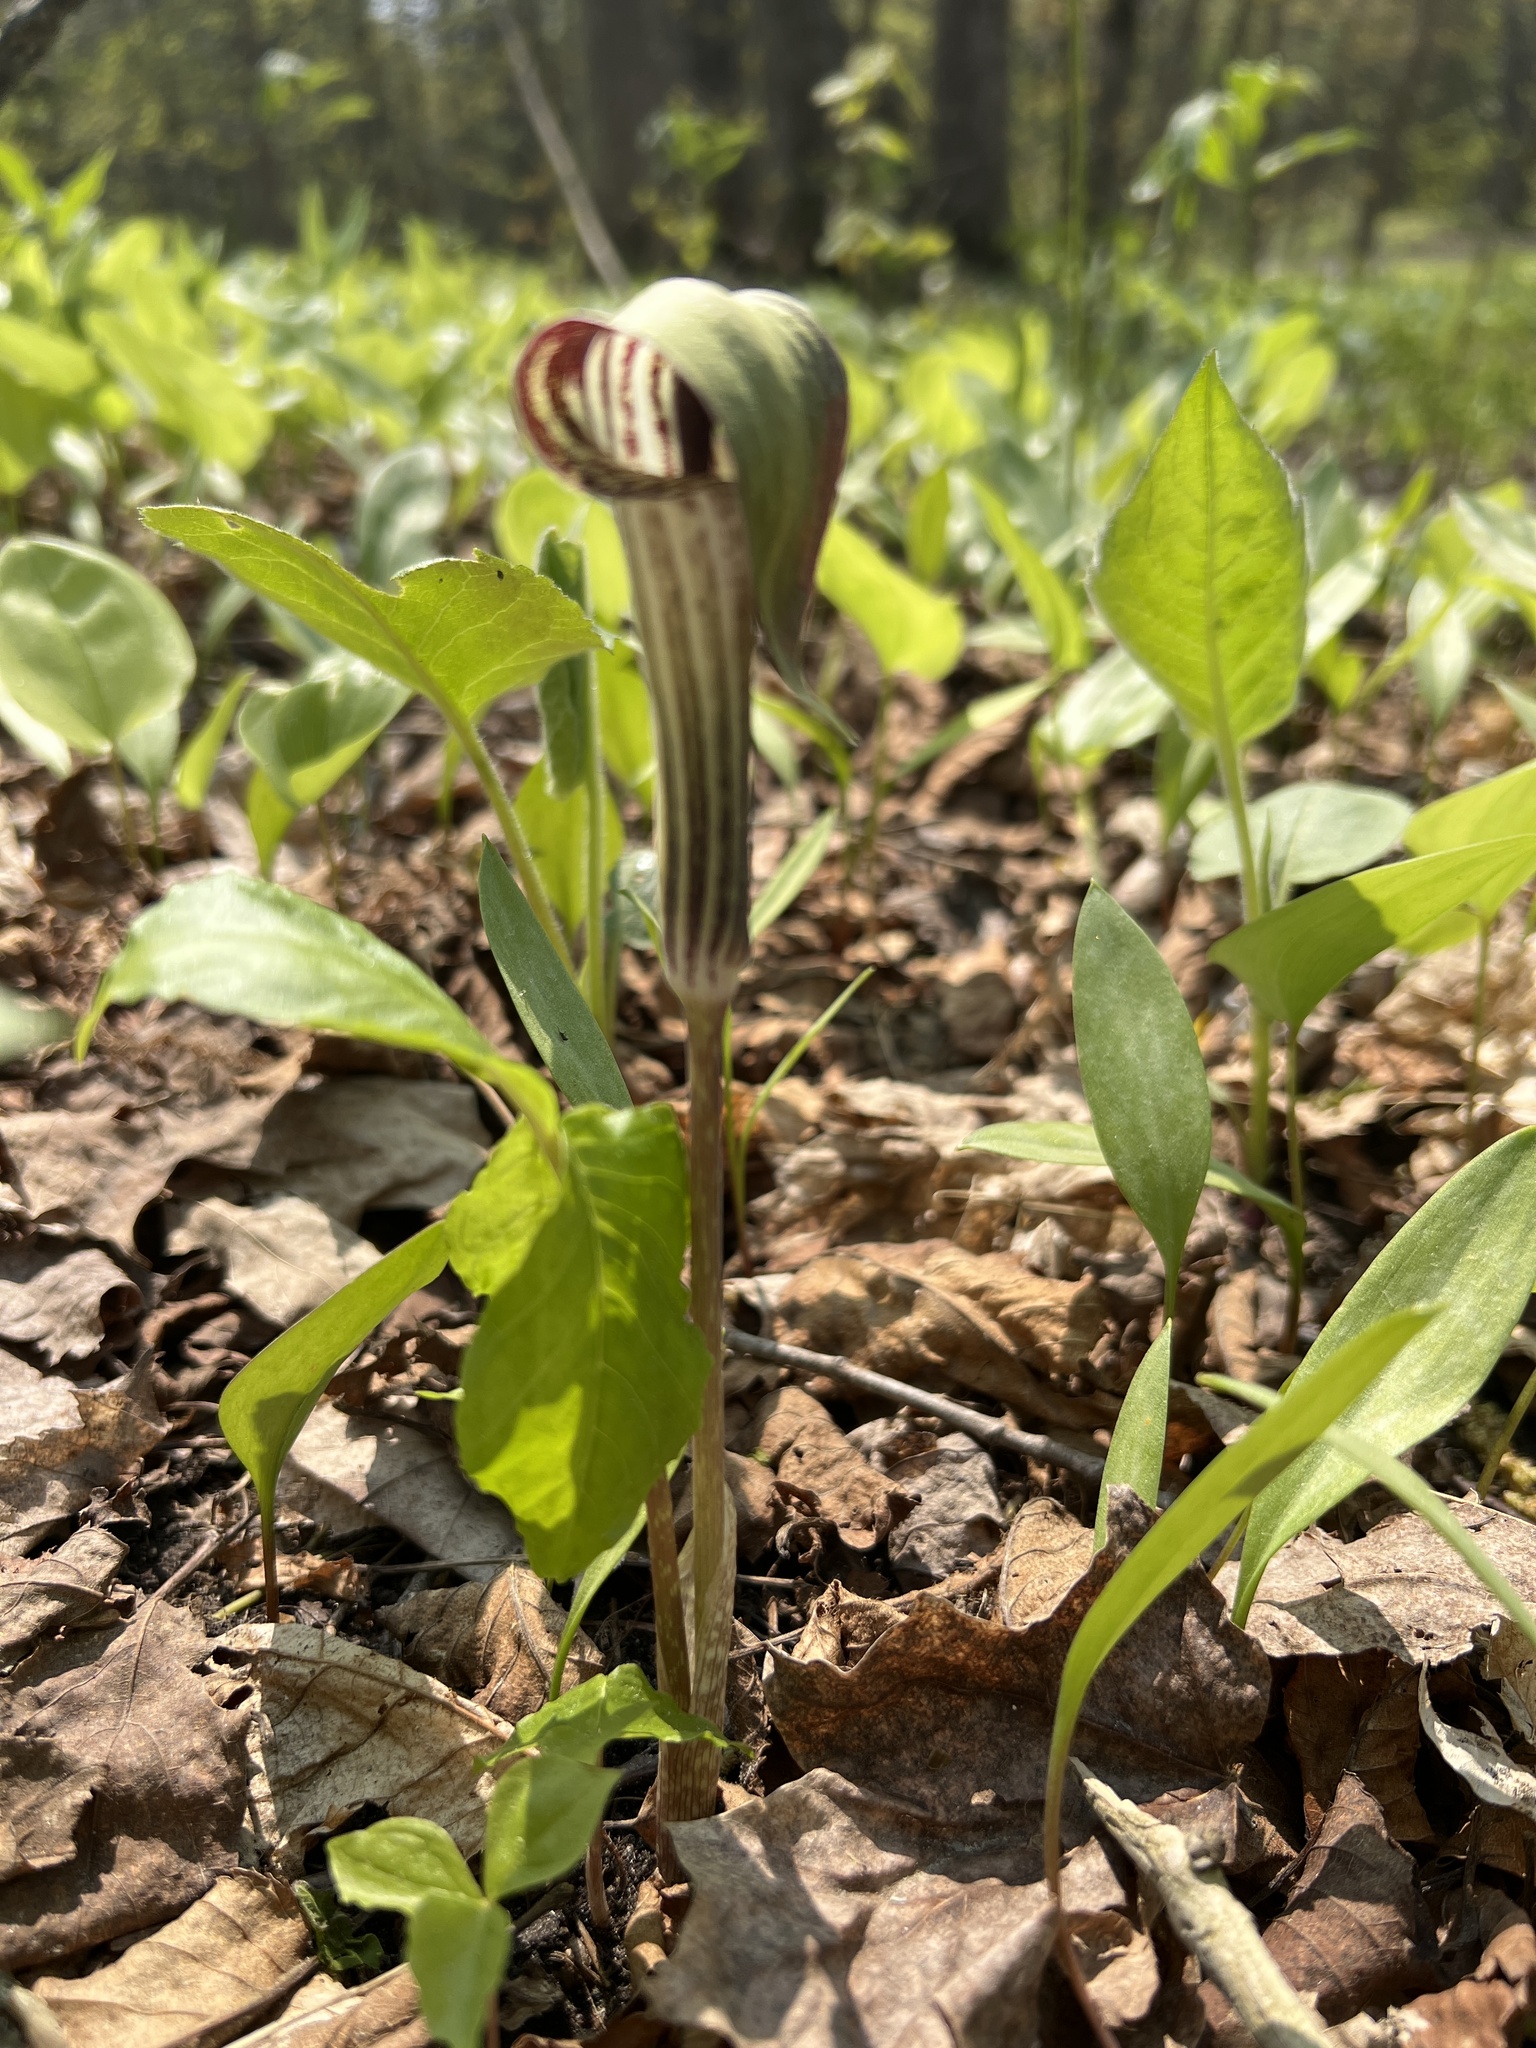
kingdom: Plantae
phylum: Tracheophyta
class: Liliopsida
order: Alismatales
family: Araceae
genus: Arisaema
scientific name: Arisaema triphyllum
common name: Jack-in-the-pulpit
